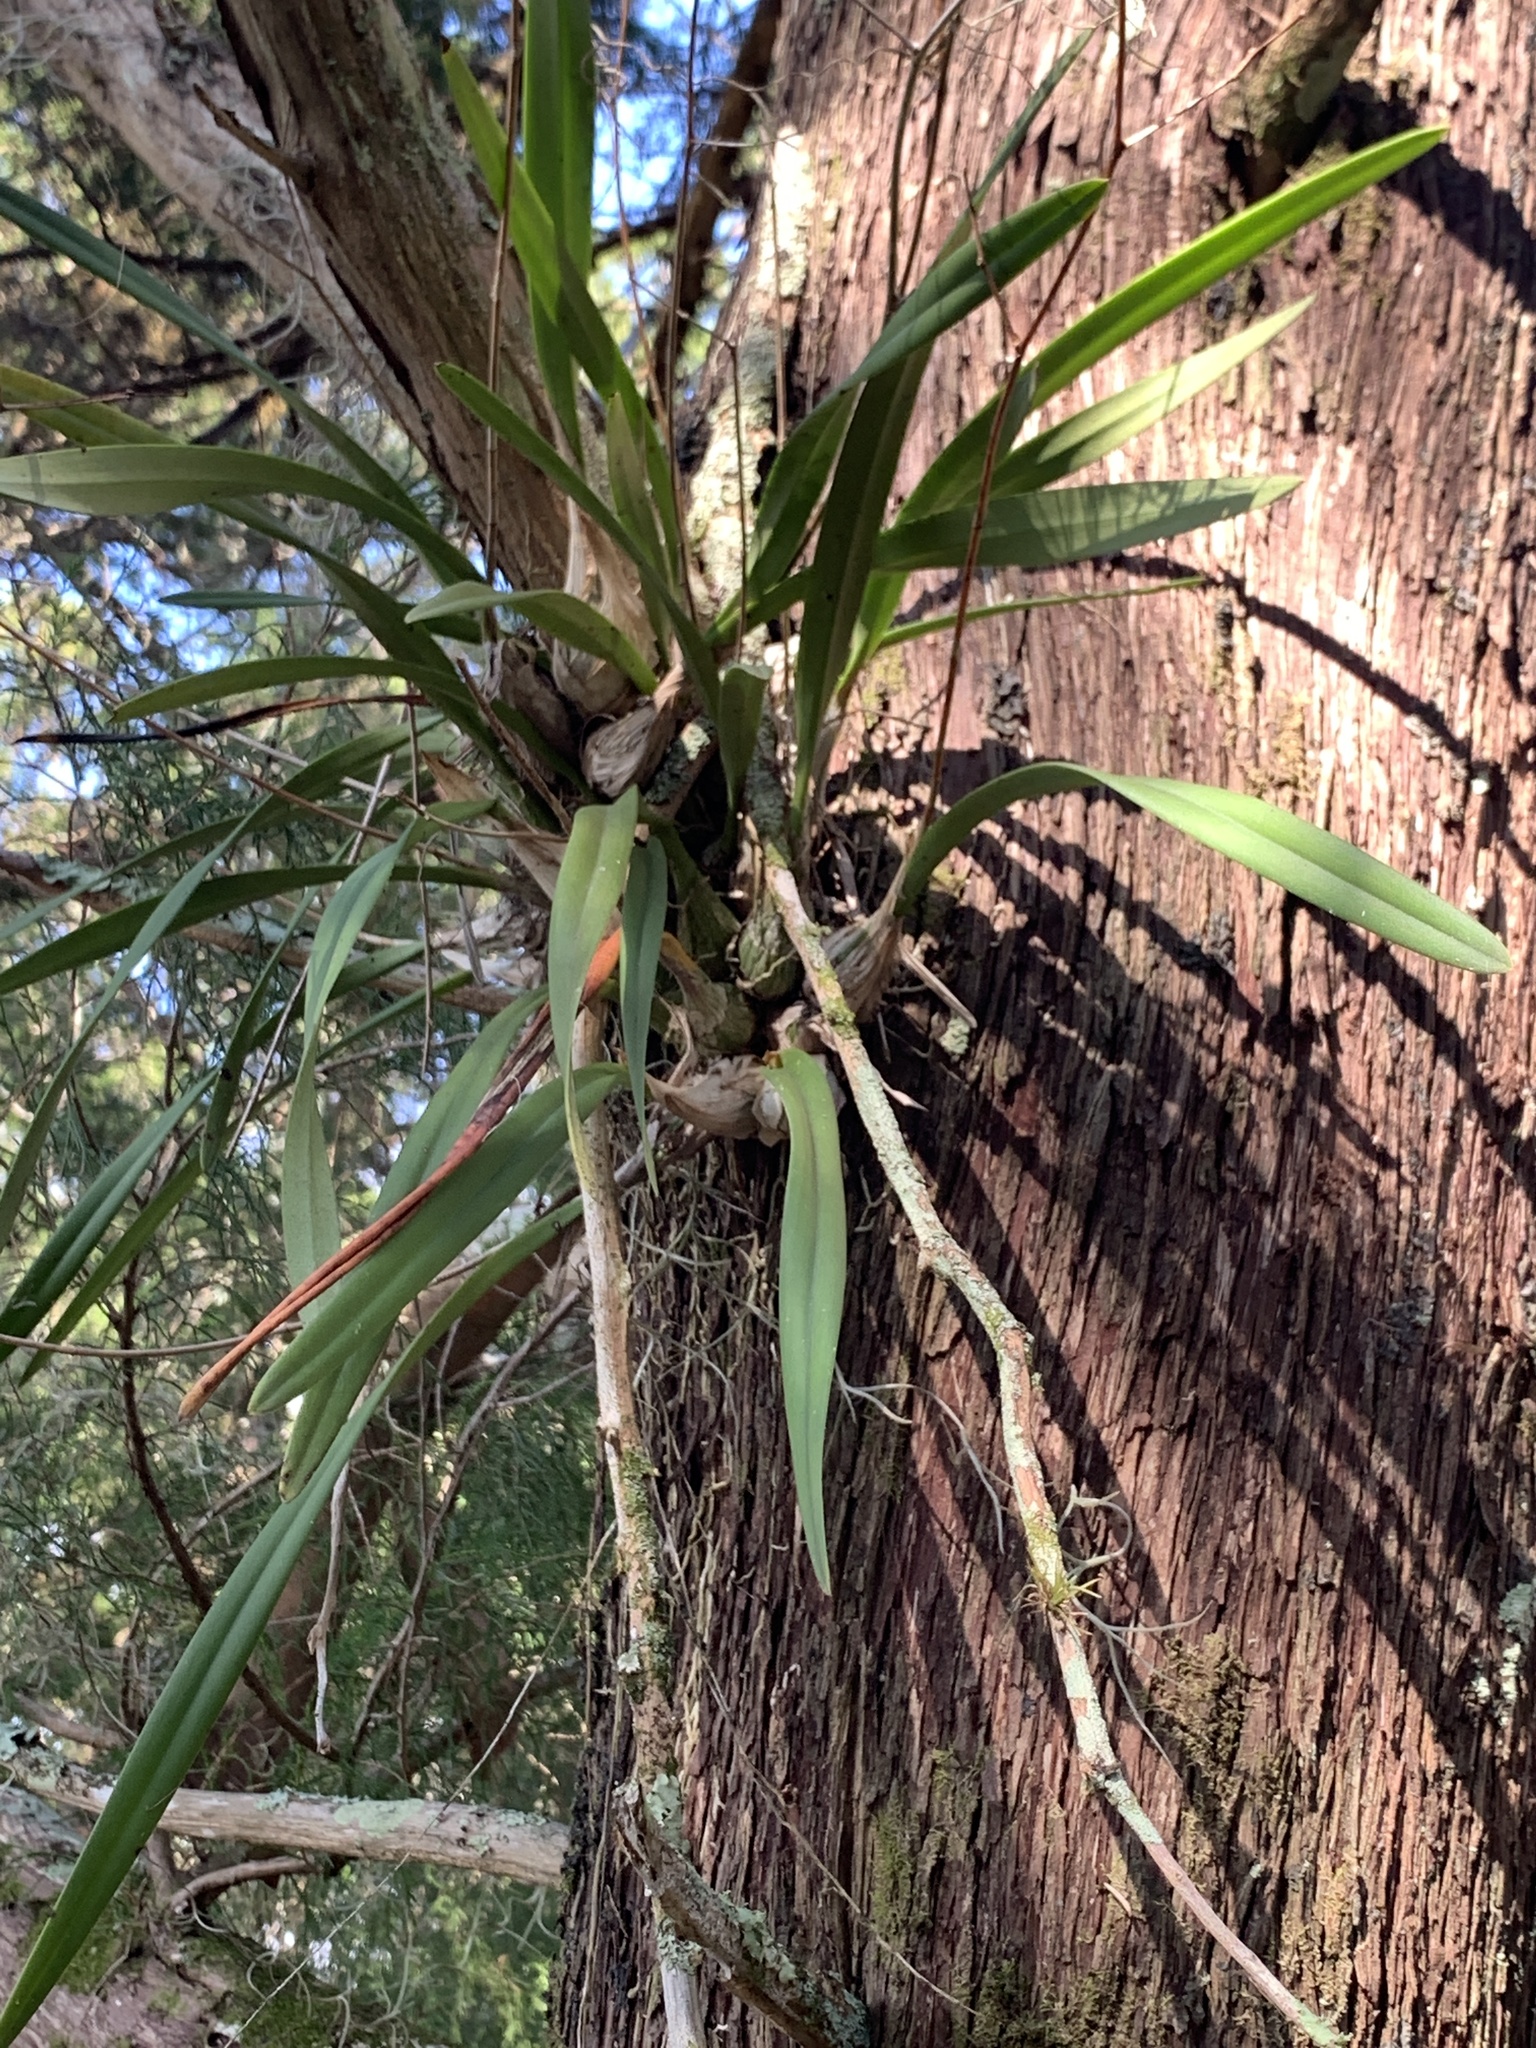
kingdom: Plantae
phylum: Tracheophyta
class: Liliopsida
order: Asparagales
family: Orchidaceae
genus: Encyclia
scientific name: Encyclia tampensis
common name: Florida butterfly orchid
